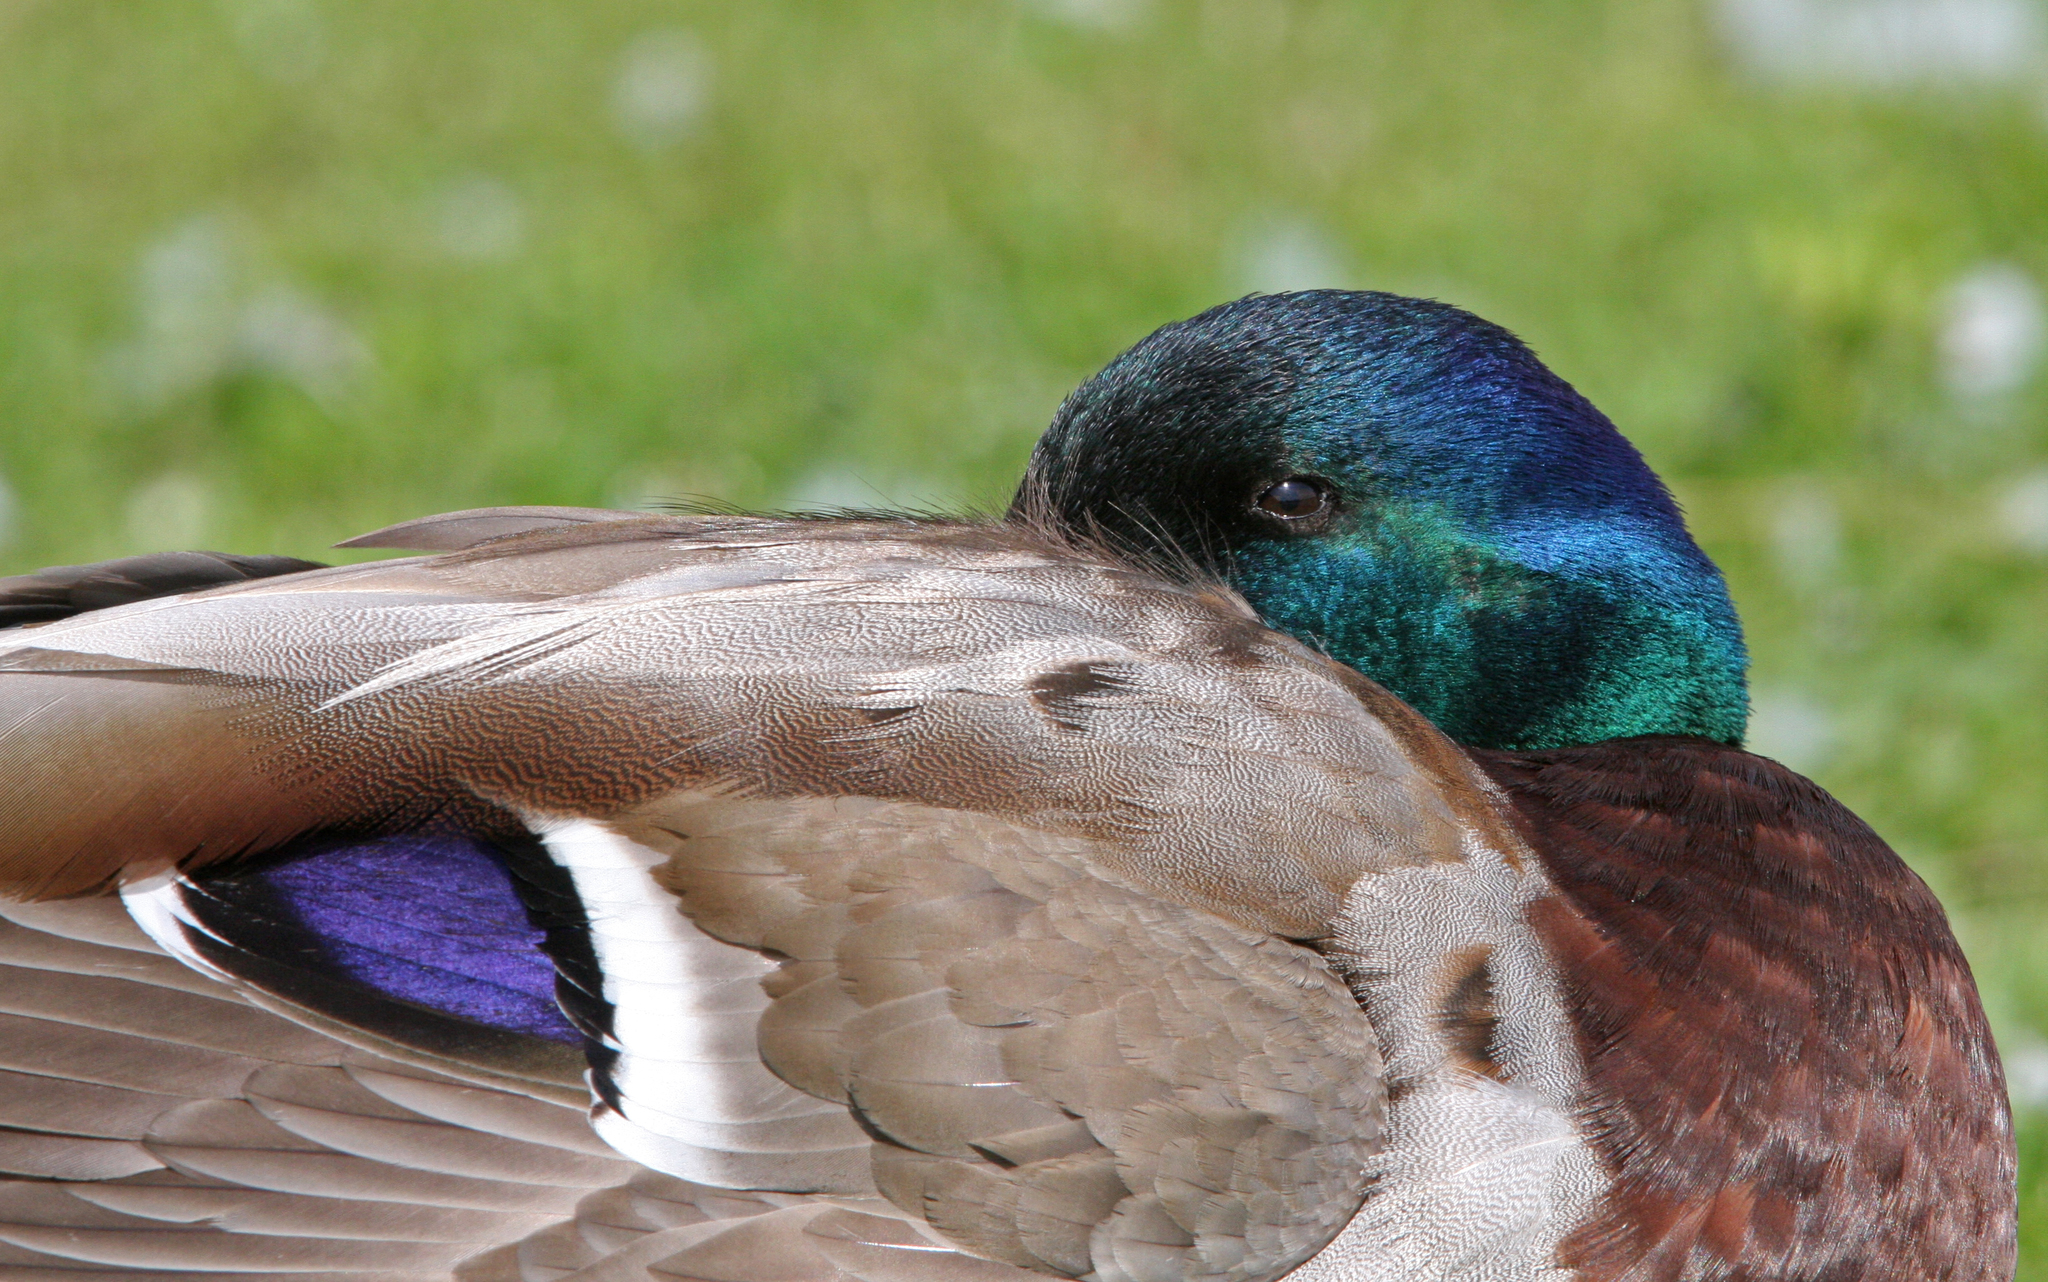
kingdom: Animalia
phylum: Chordata
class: Aves
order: Anseriformes
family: Anatidae
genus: Anas
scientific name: Anas platyrhynchos
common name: Mallard
